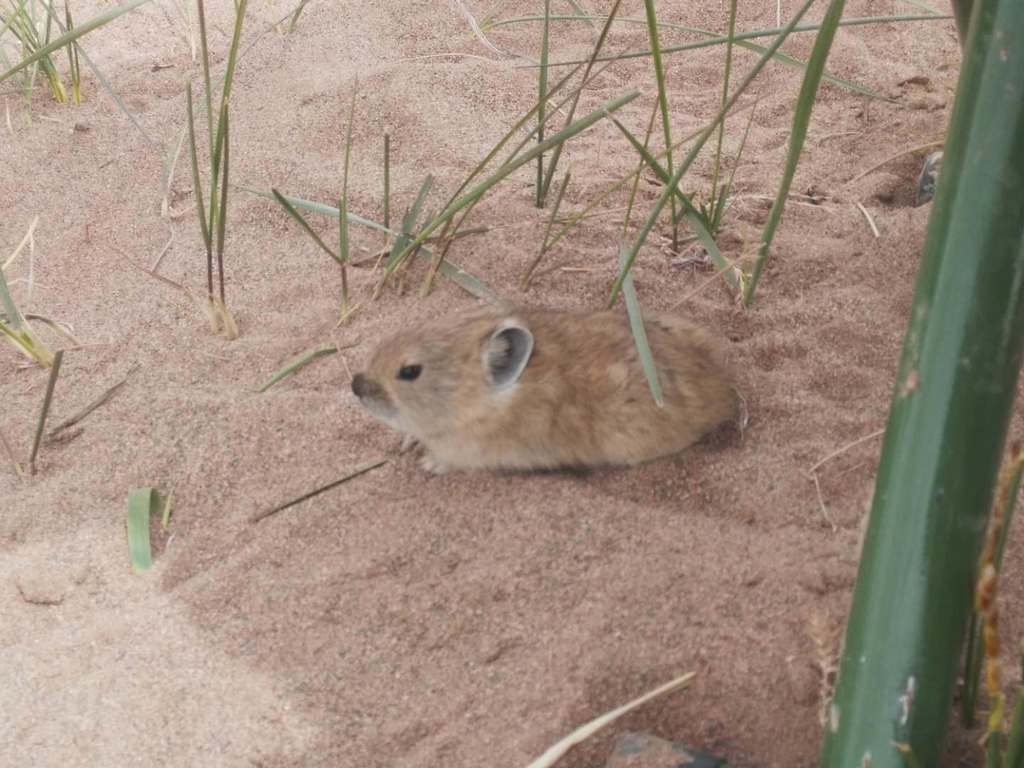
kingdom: Animalia
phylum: Chordata
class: Mammalia
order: Lagomorpha
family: Ochotonidae
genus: Ochotona
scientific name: Ochotona curzoniae
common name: Plateau pika
